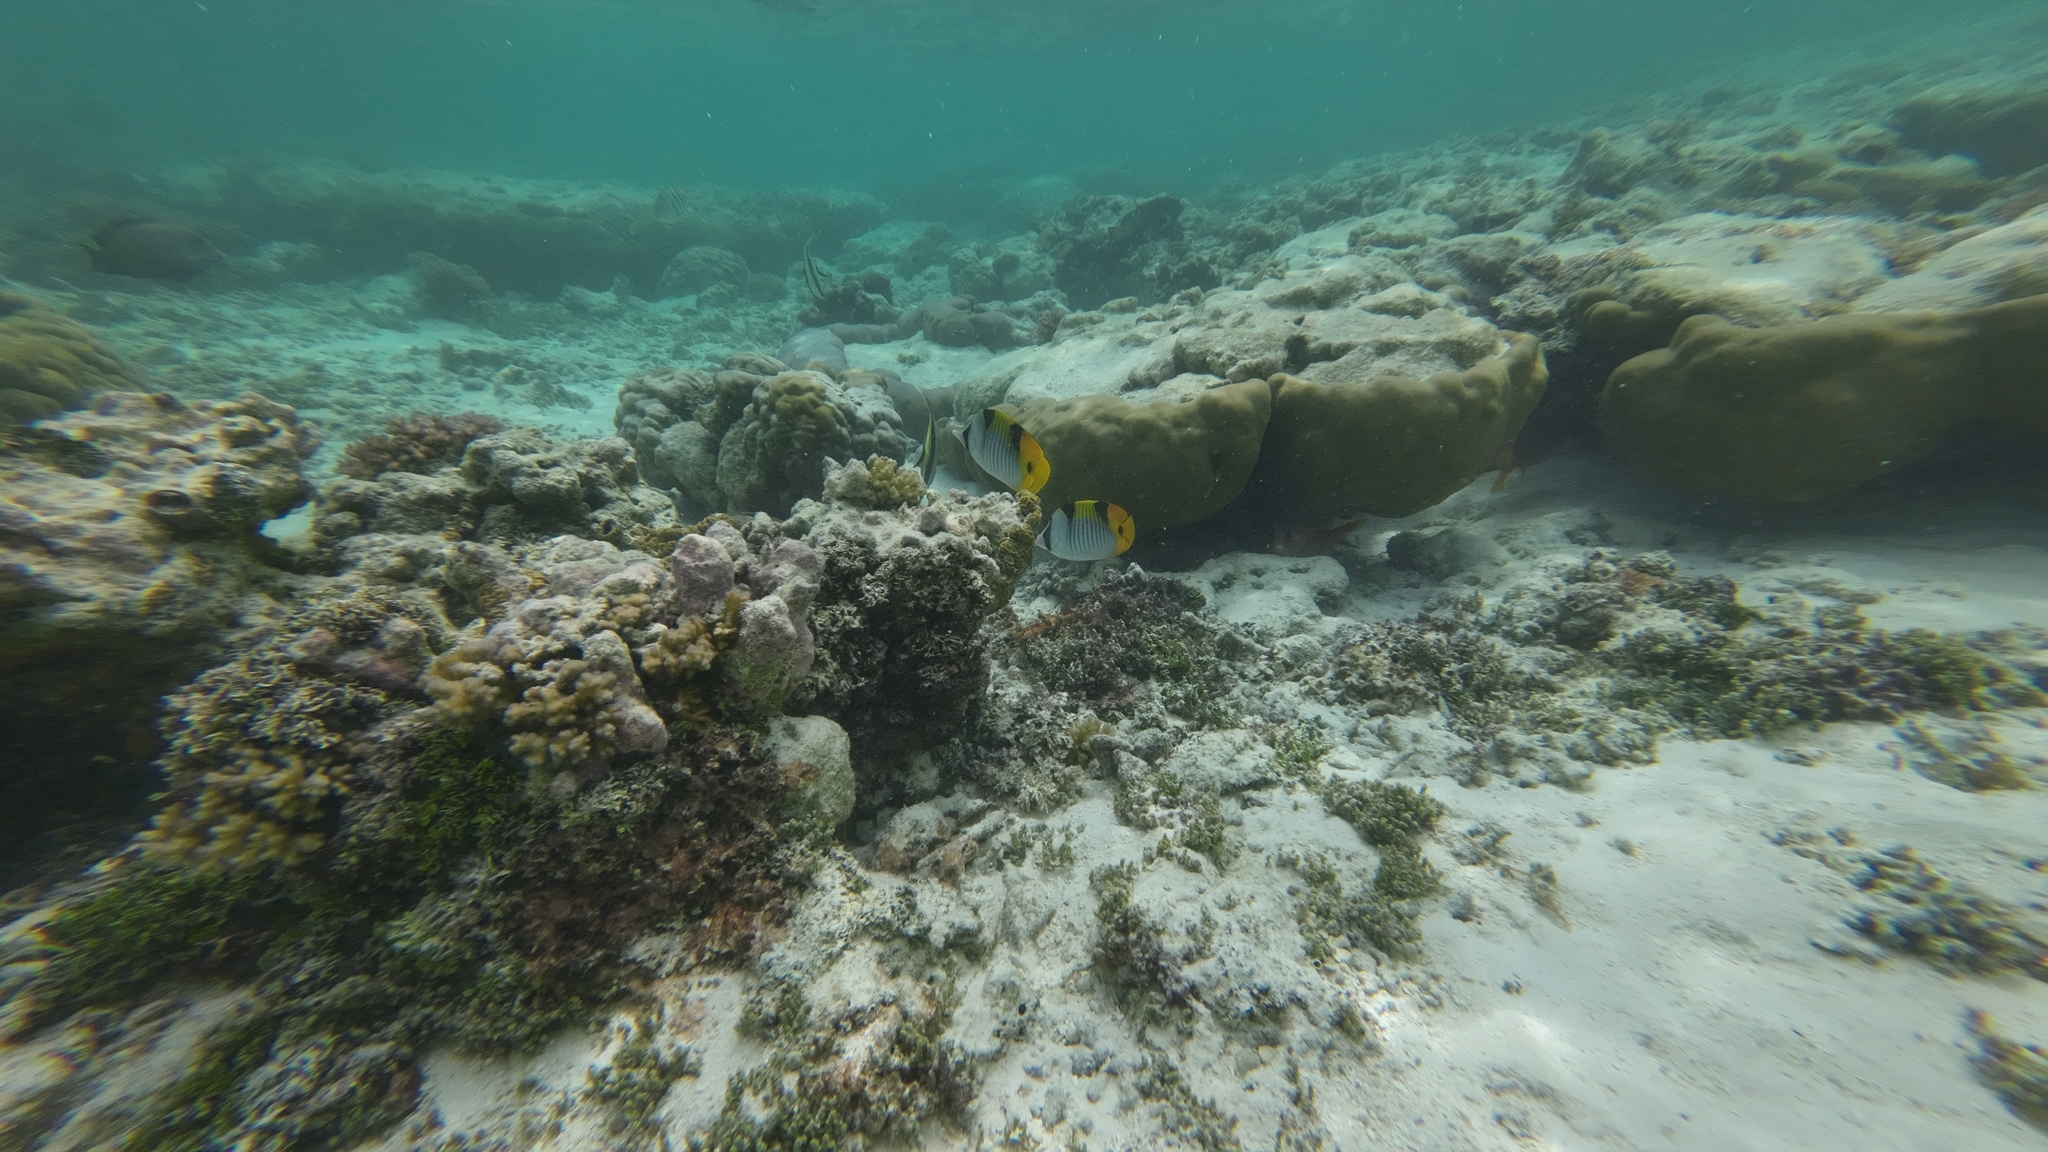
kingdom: Animalia
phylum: Chordata
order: Perciformes
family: Chaetodontidae
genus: Chaetodon
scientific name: Chaetodon falcula
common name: Blackwedged butterflyfish
